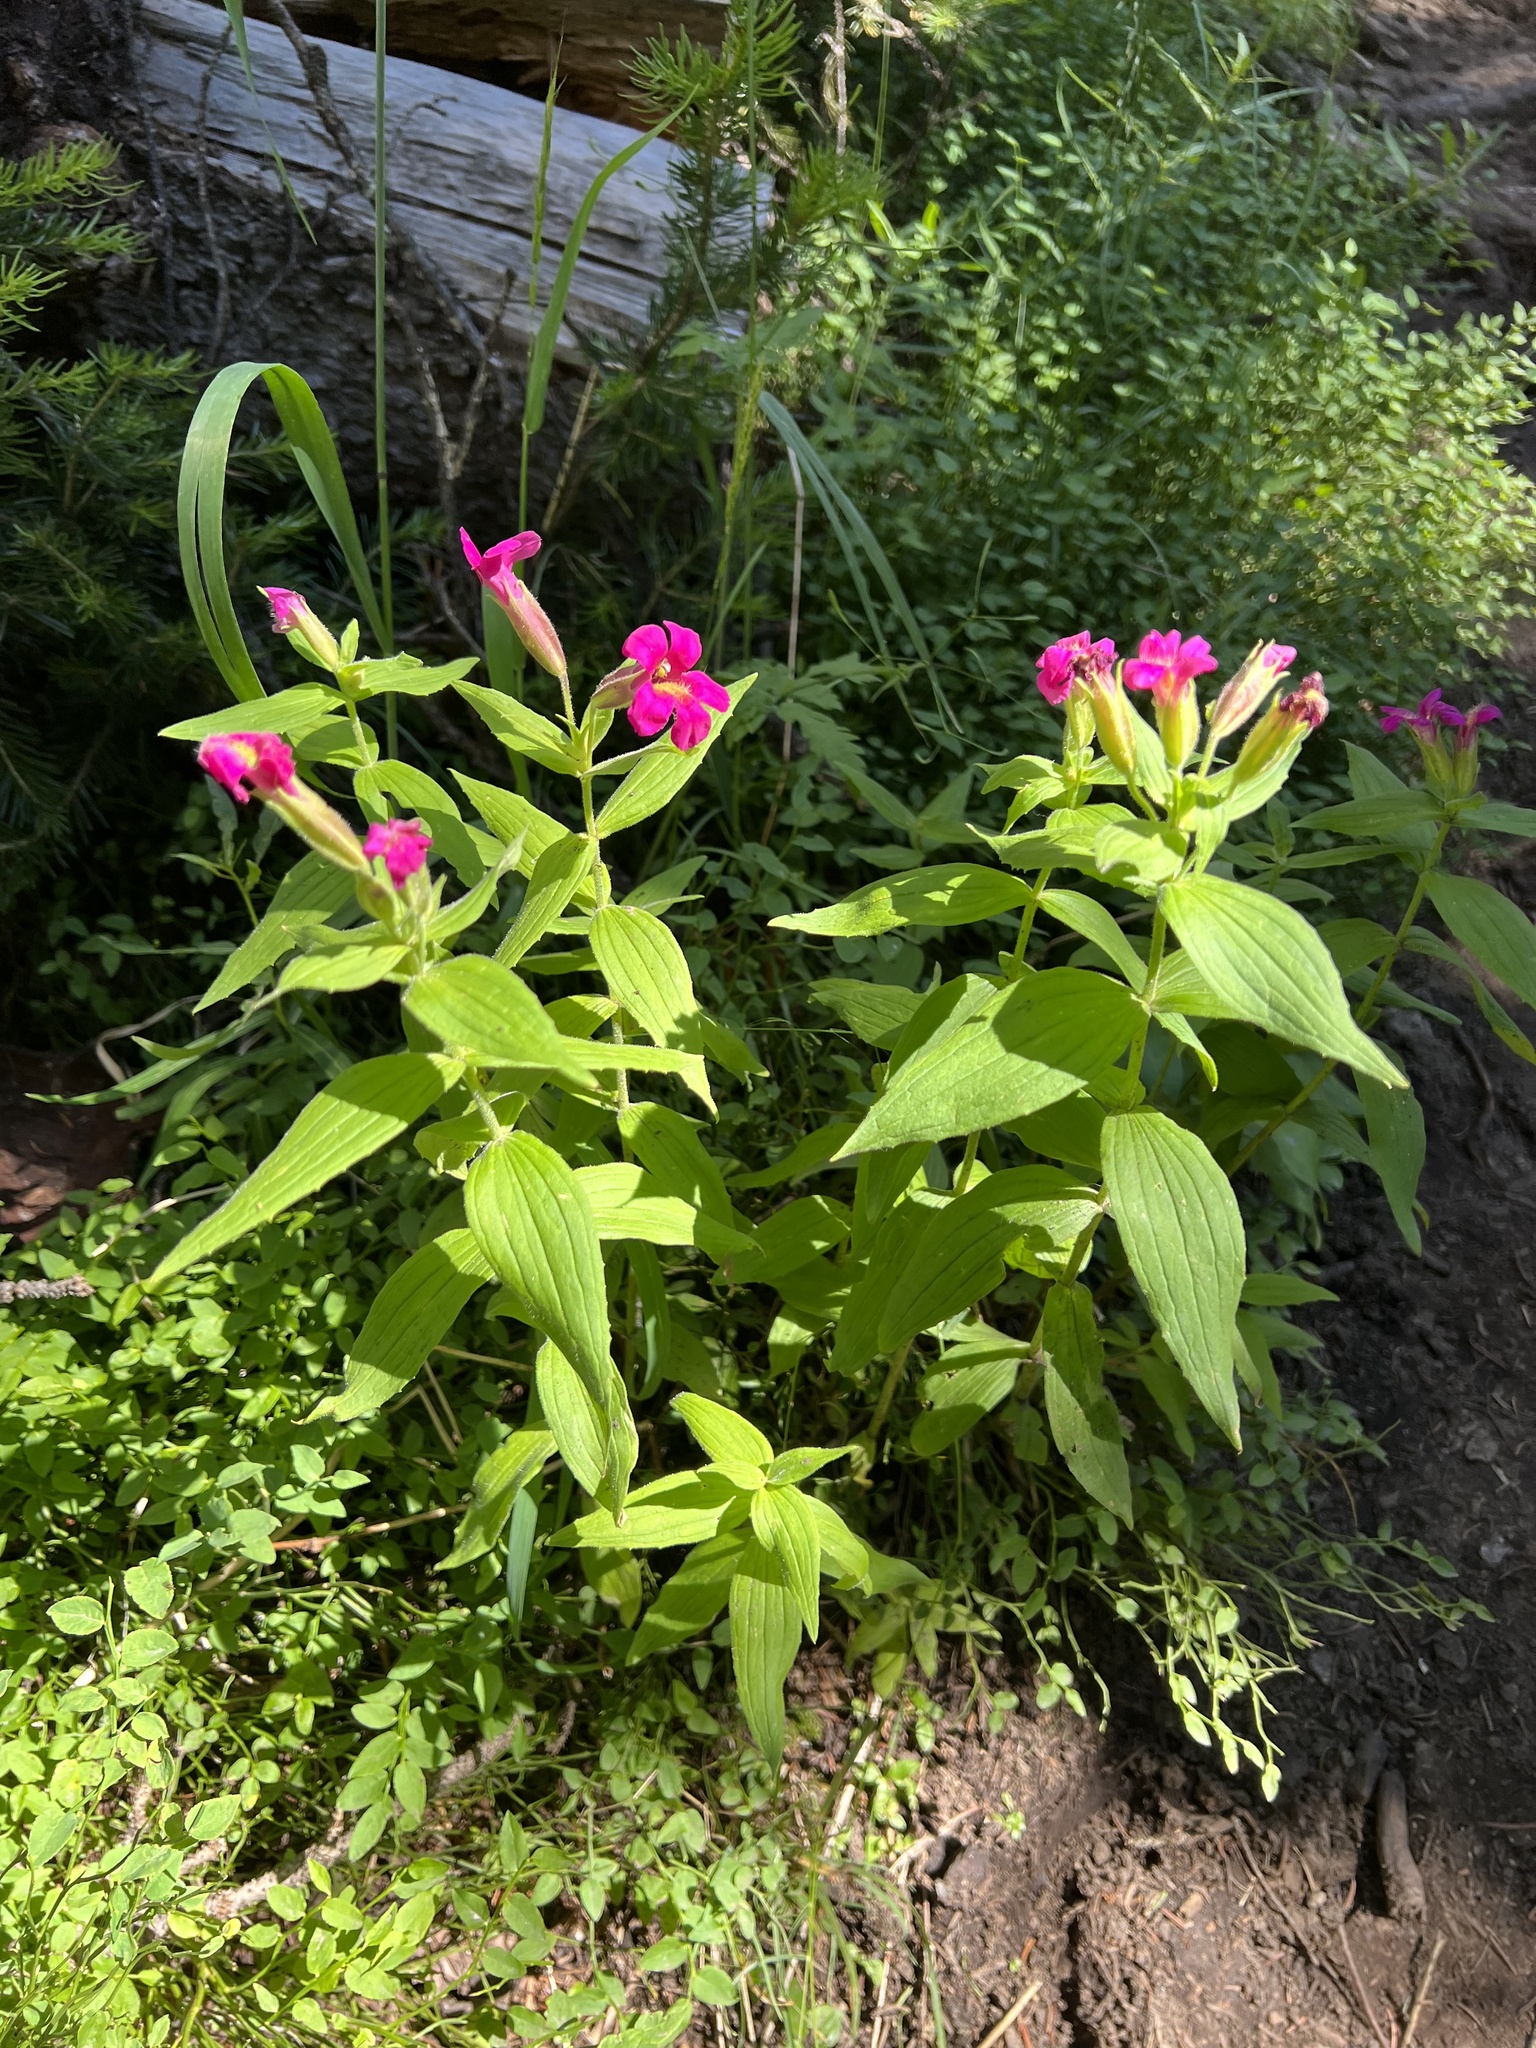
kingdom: Plantae
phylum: Tracheophyta
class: Magnoliopsida
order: Lamiales
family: Phrymaceae
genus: Erythranthe
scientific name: Erythranthe lewisii
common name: Lewis's monkey-flower
